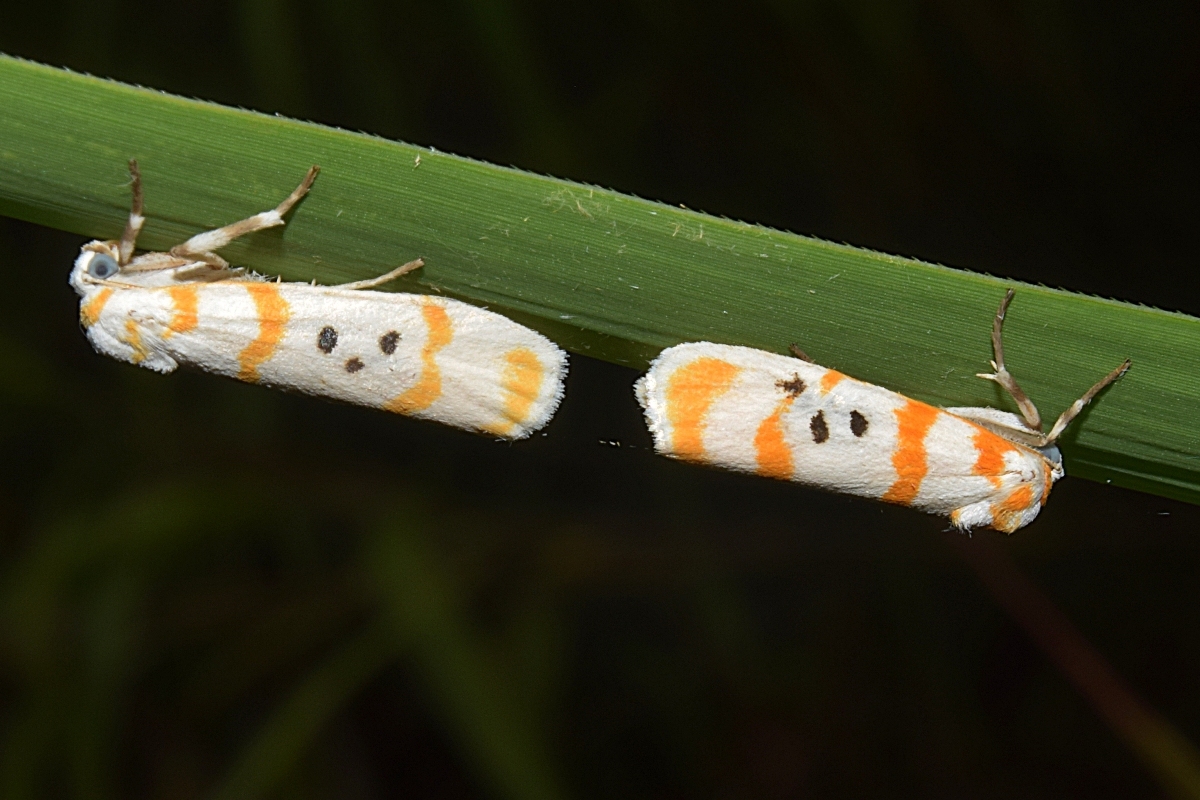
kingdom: Animalia
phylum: Arthropoda
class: Insecta
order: Lepidoptera
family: Erebidae
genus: Cyana
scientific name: Cyana guttifera
